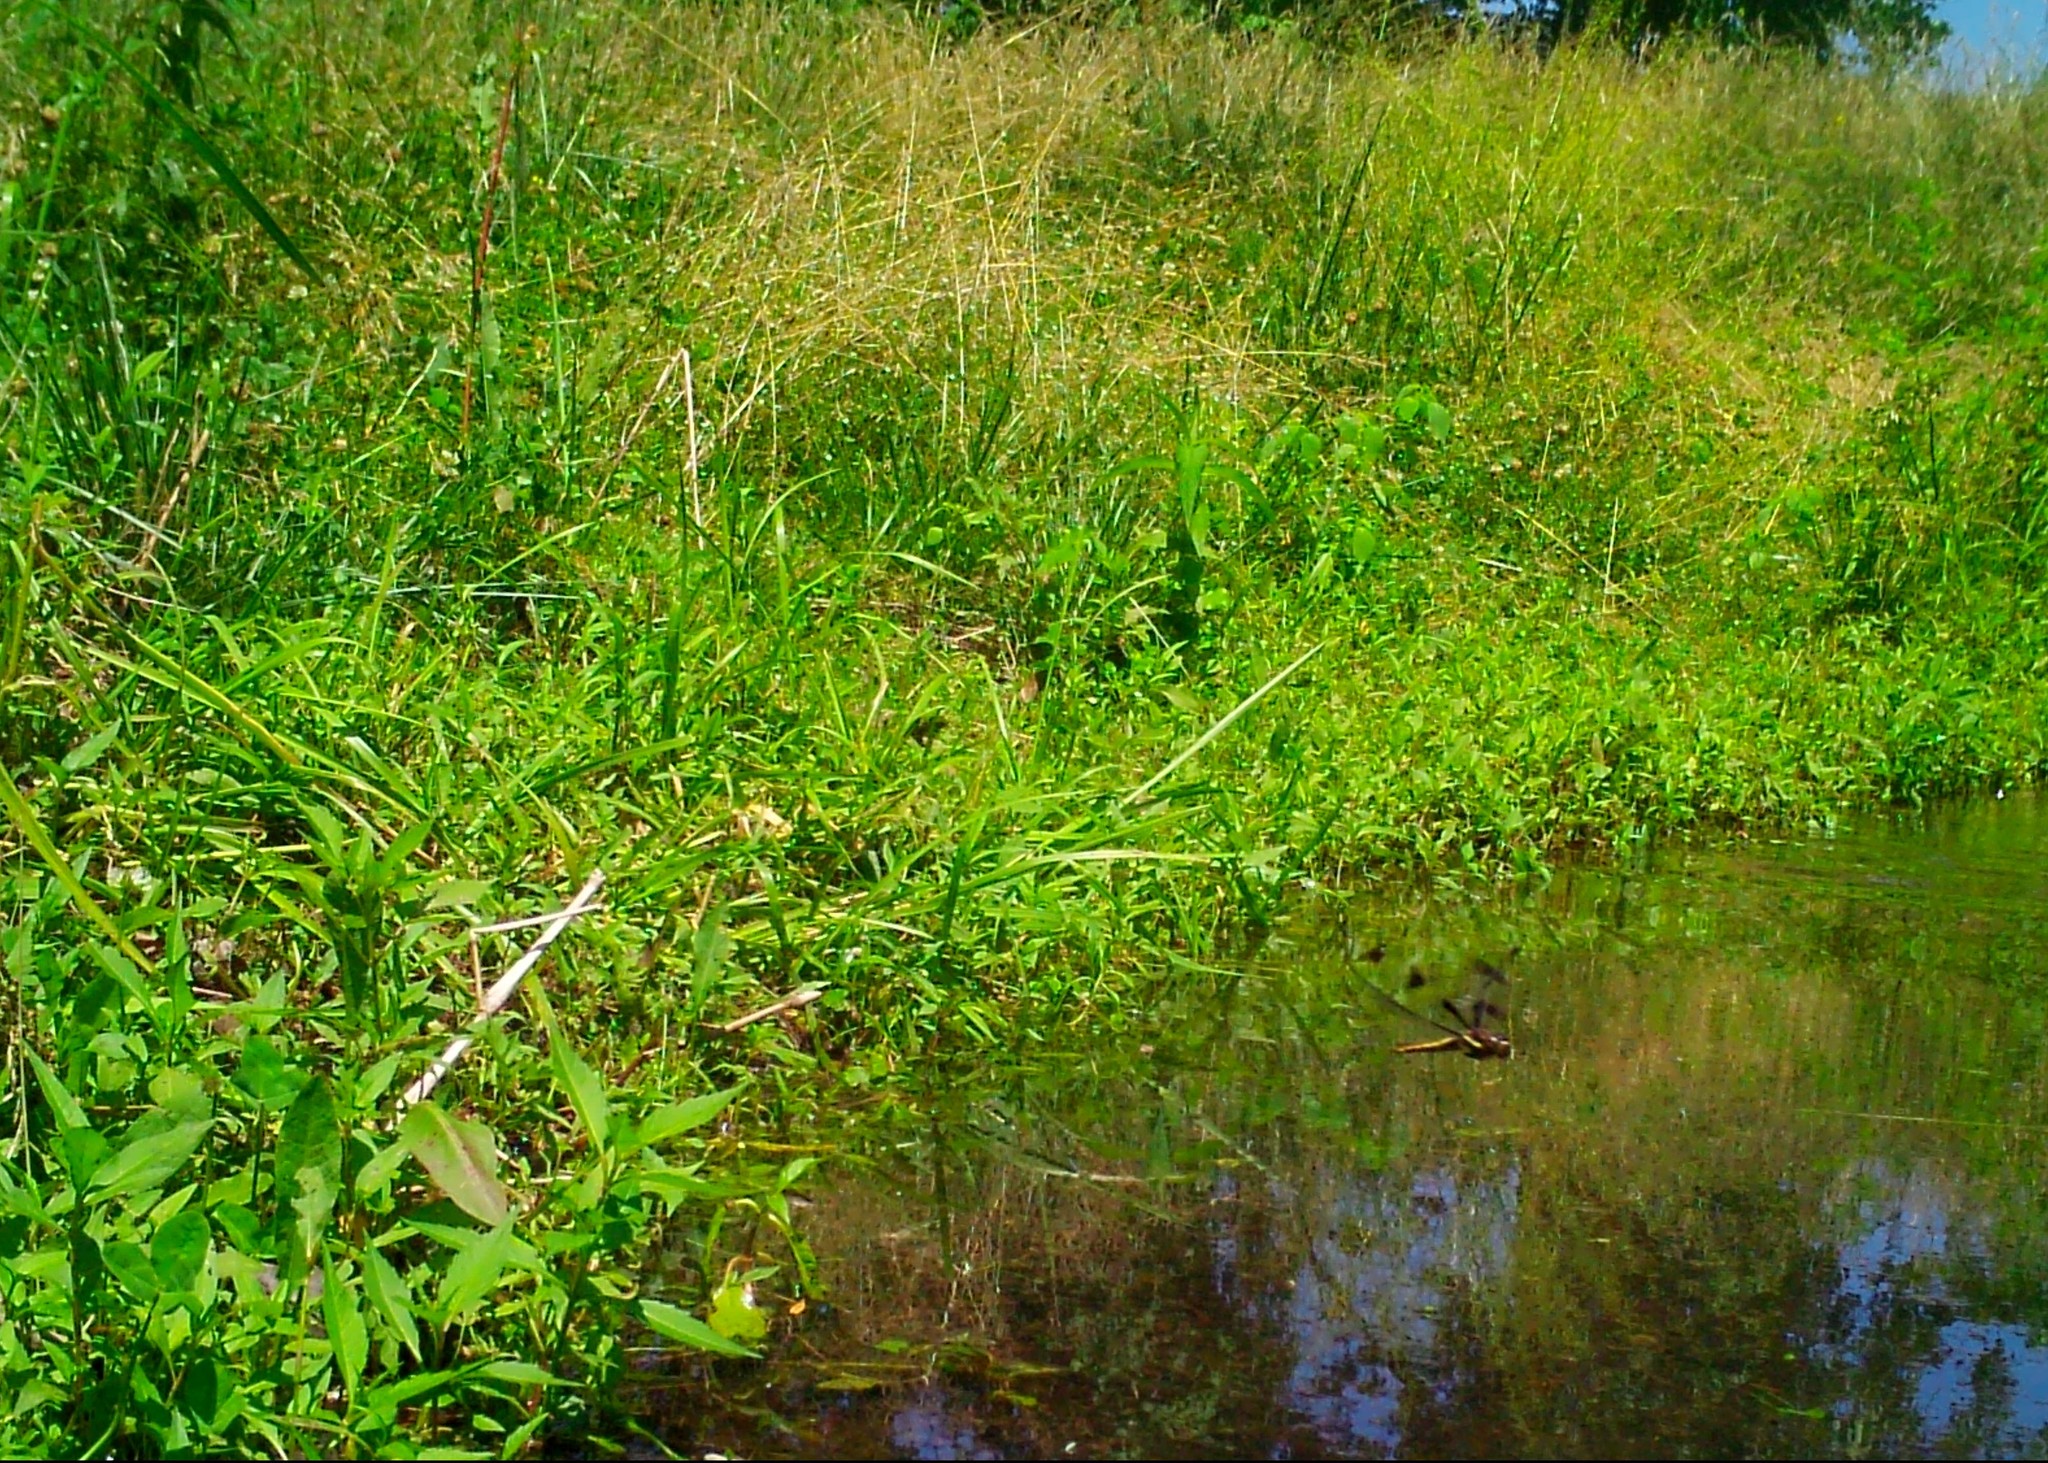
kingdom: Animalia
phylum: Arthropoda
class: Insecta
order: Odonata
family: Libellulidae
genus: Libellula
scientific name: Libellula pulchella
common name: Twelve-spotted skimmer
